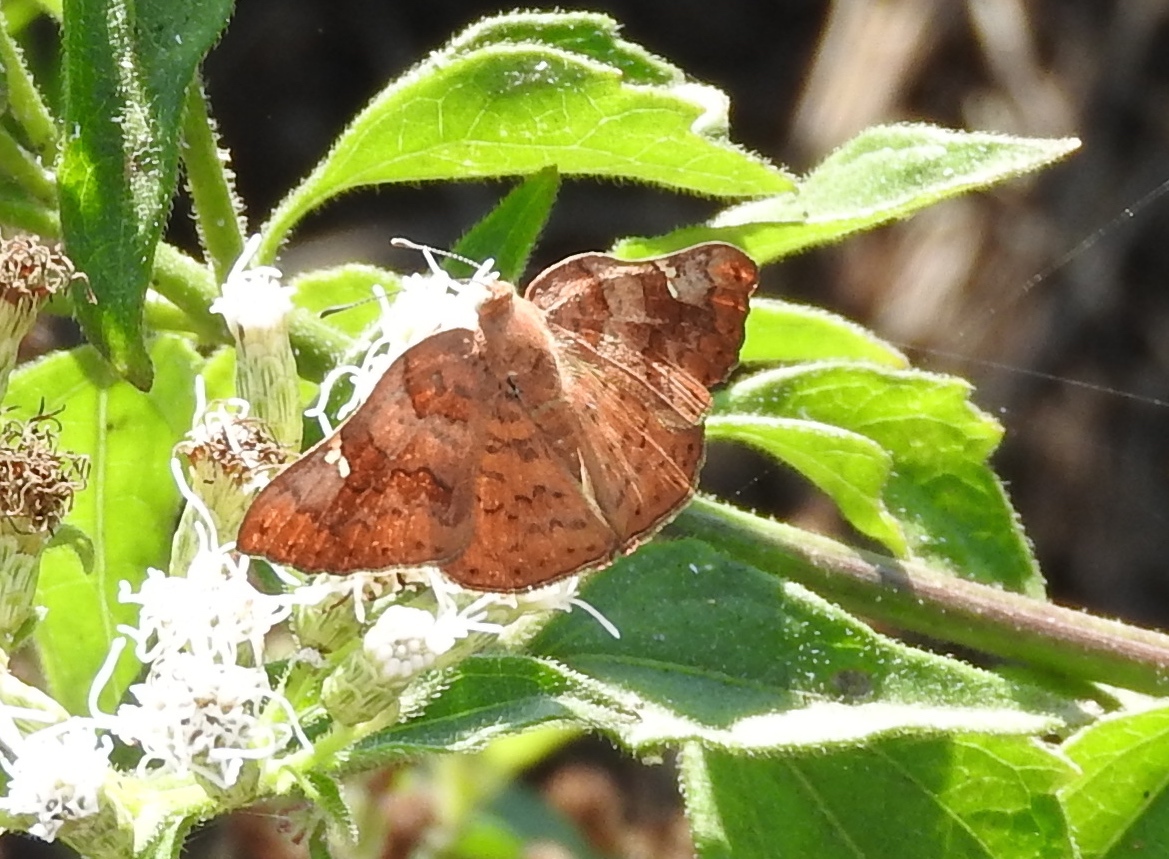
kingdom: Animalia
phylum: Arthropoda
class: Insecta
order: Lepidoptera
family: Riodinidae
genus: Curvie
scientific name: Curvie emesia
